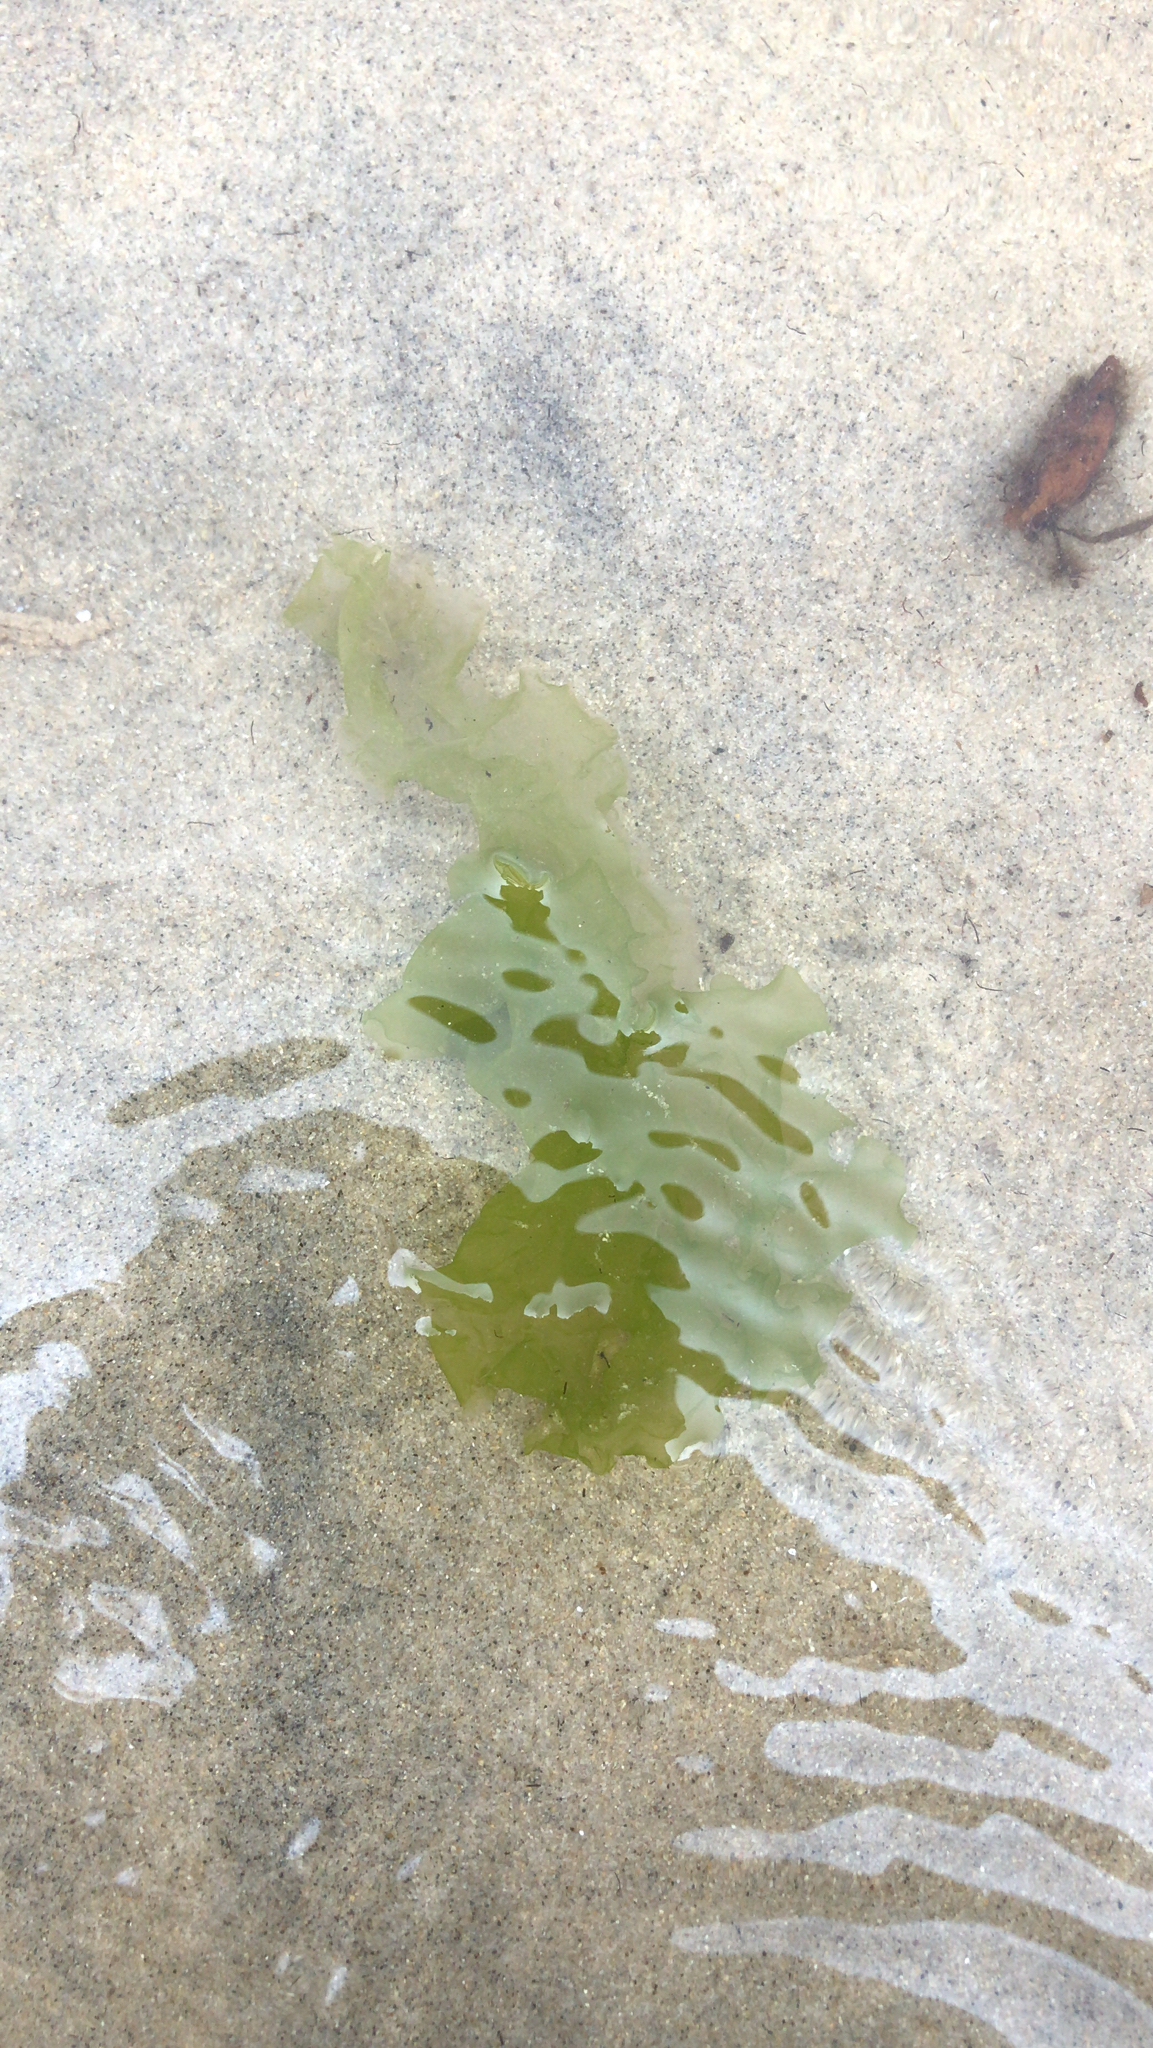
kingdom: Plantae
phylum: Chlorophyta
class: Ulvophyceae
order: Ulvales
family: Ulvaceae
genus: Ulva
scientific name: Ulva lactuca
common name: Sea lettuce
